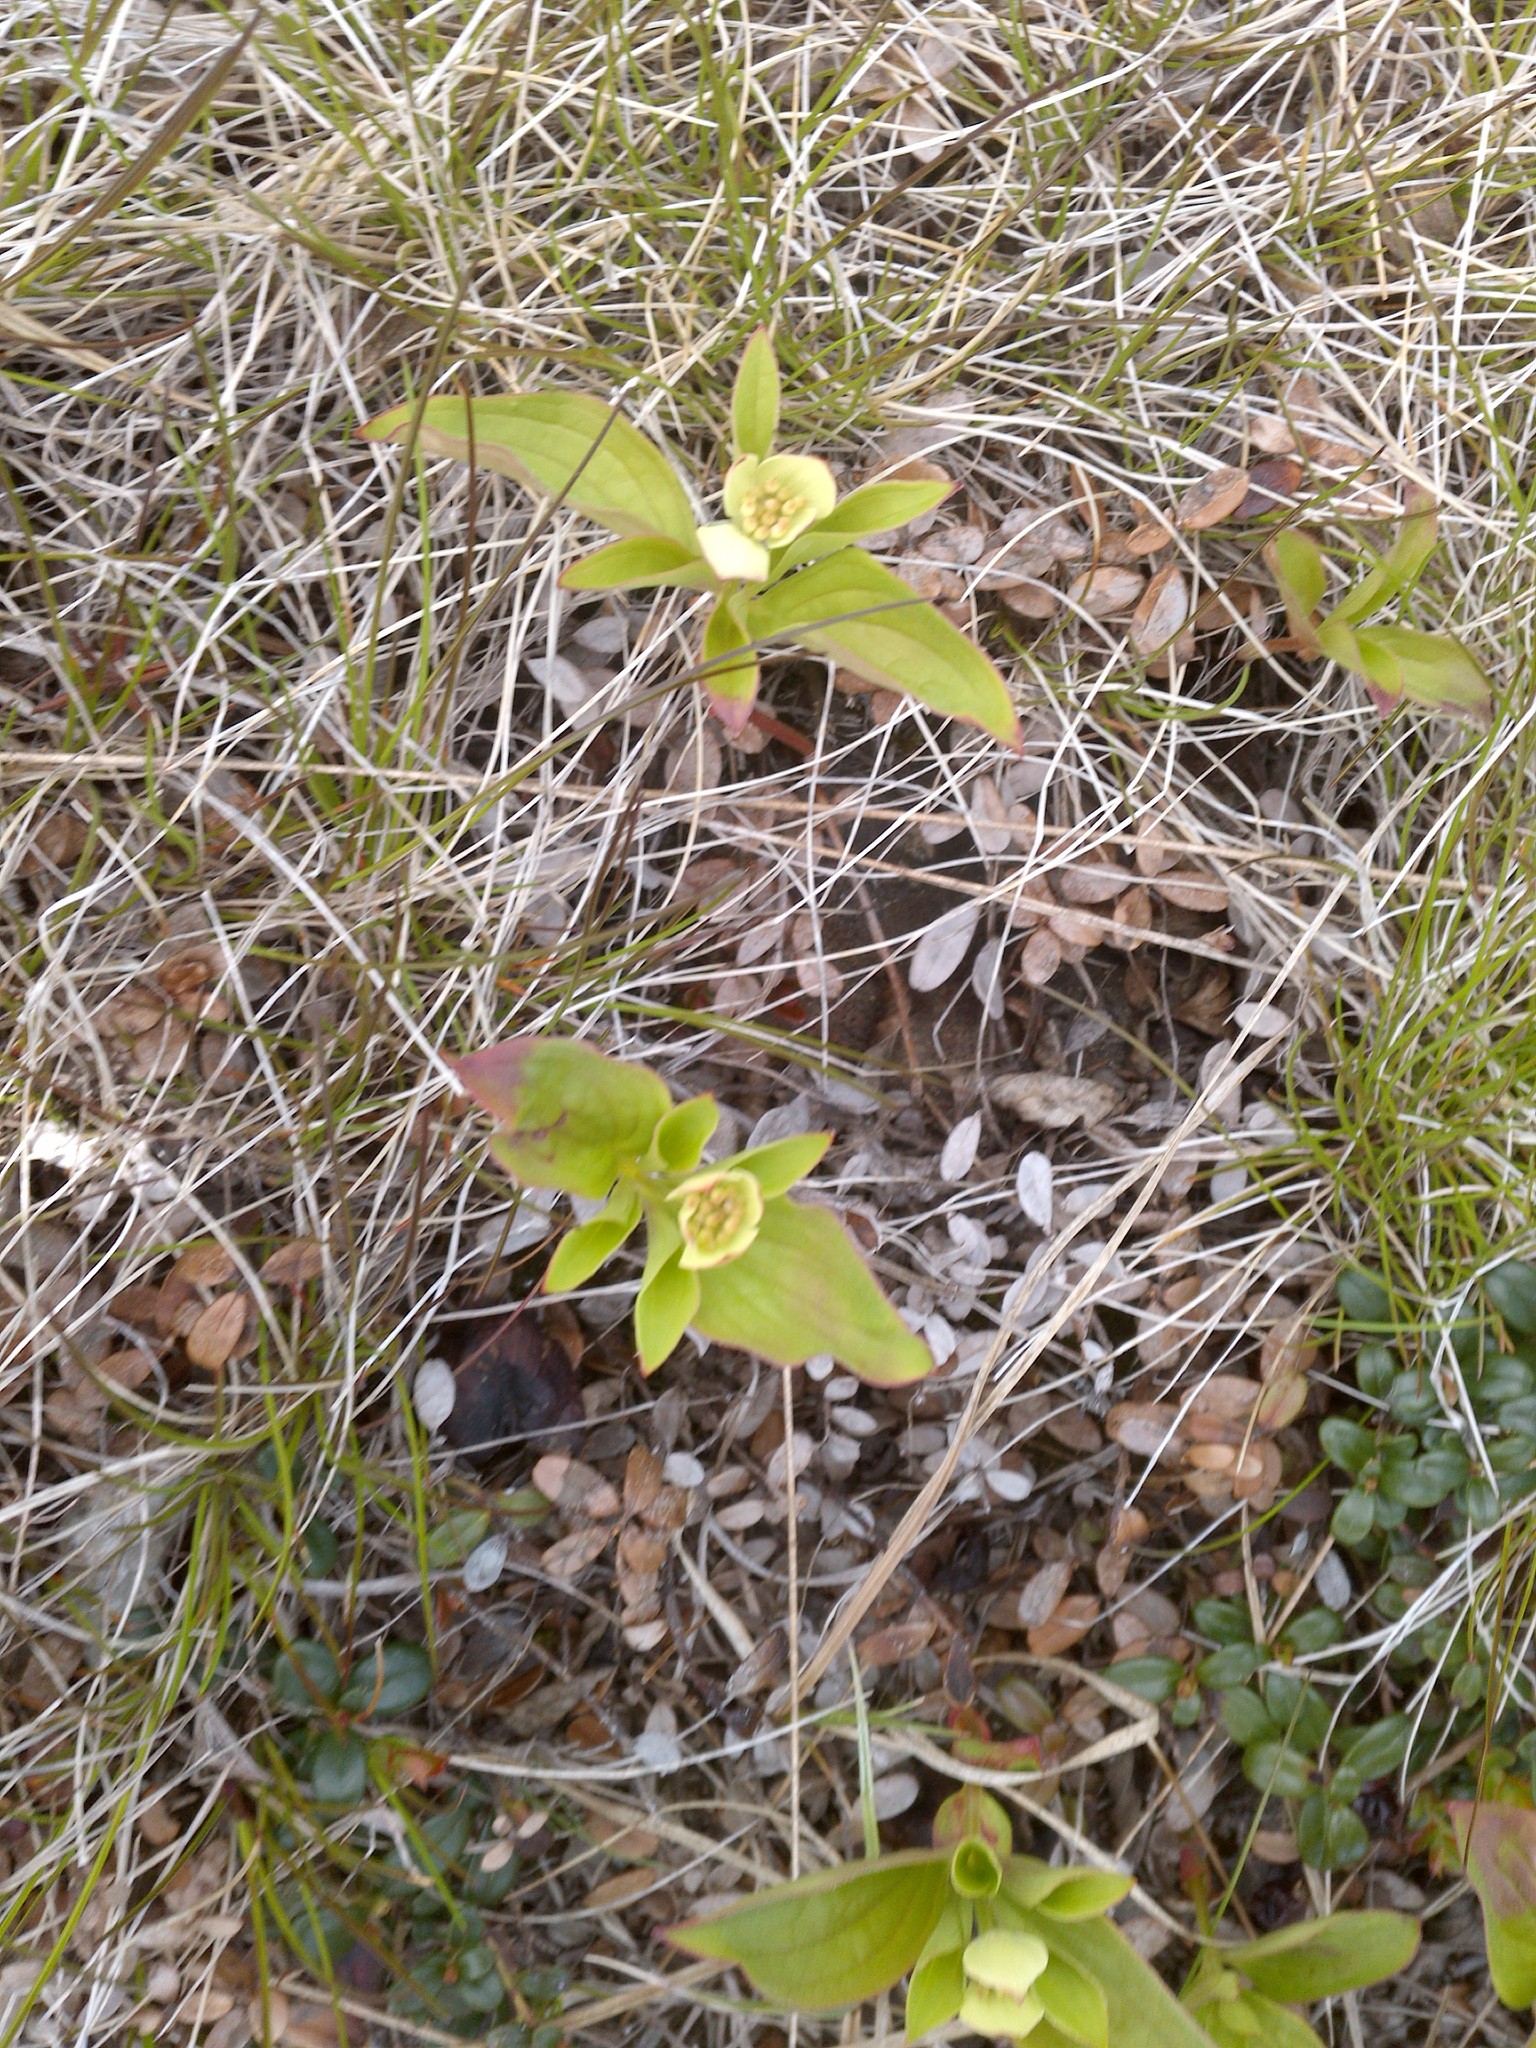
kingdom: Plantae
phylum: Tracheophyta
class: Magnoliopsida
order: Cornales
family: Cornaceae
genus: Cornus
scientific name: Cornus canadensis
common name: Creeping dogwood
